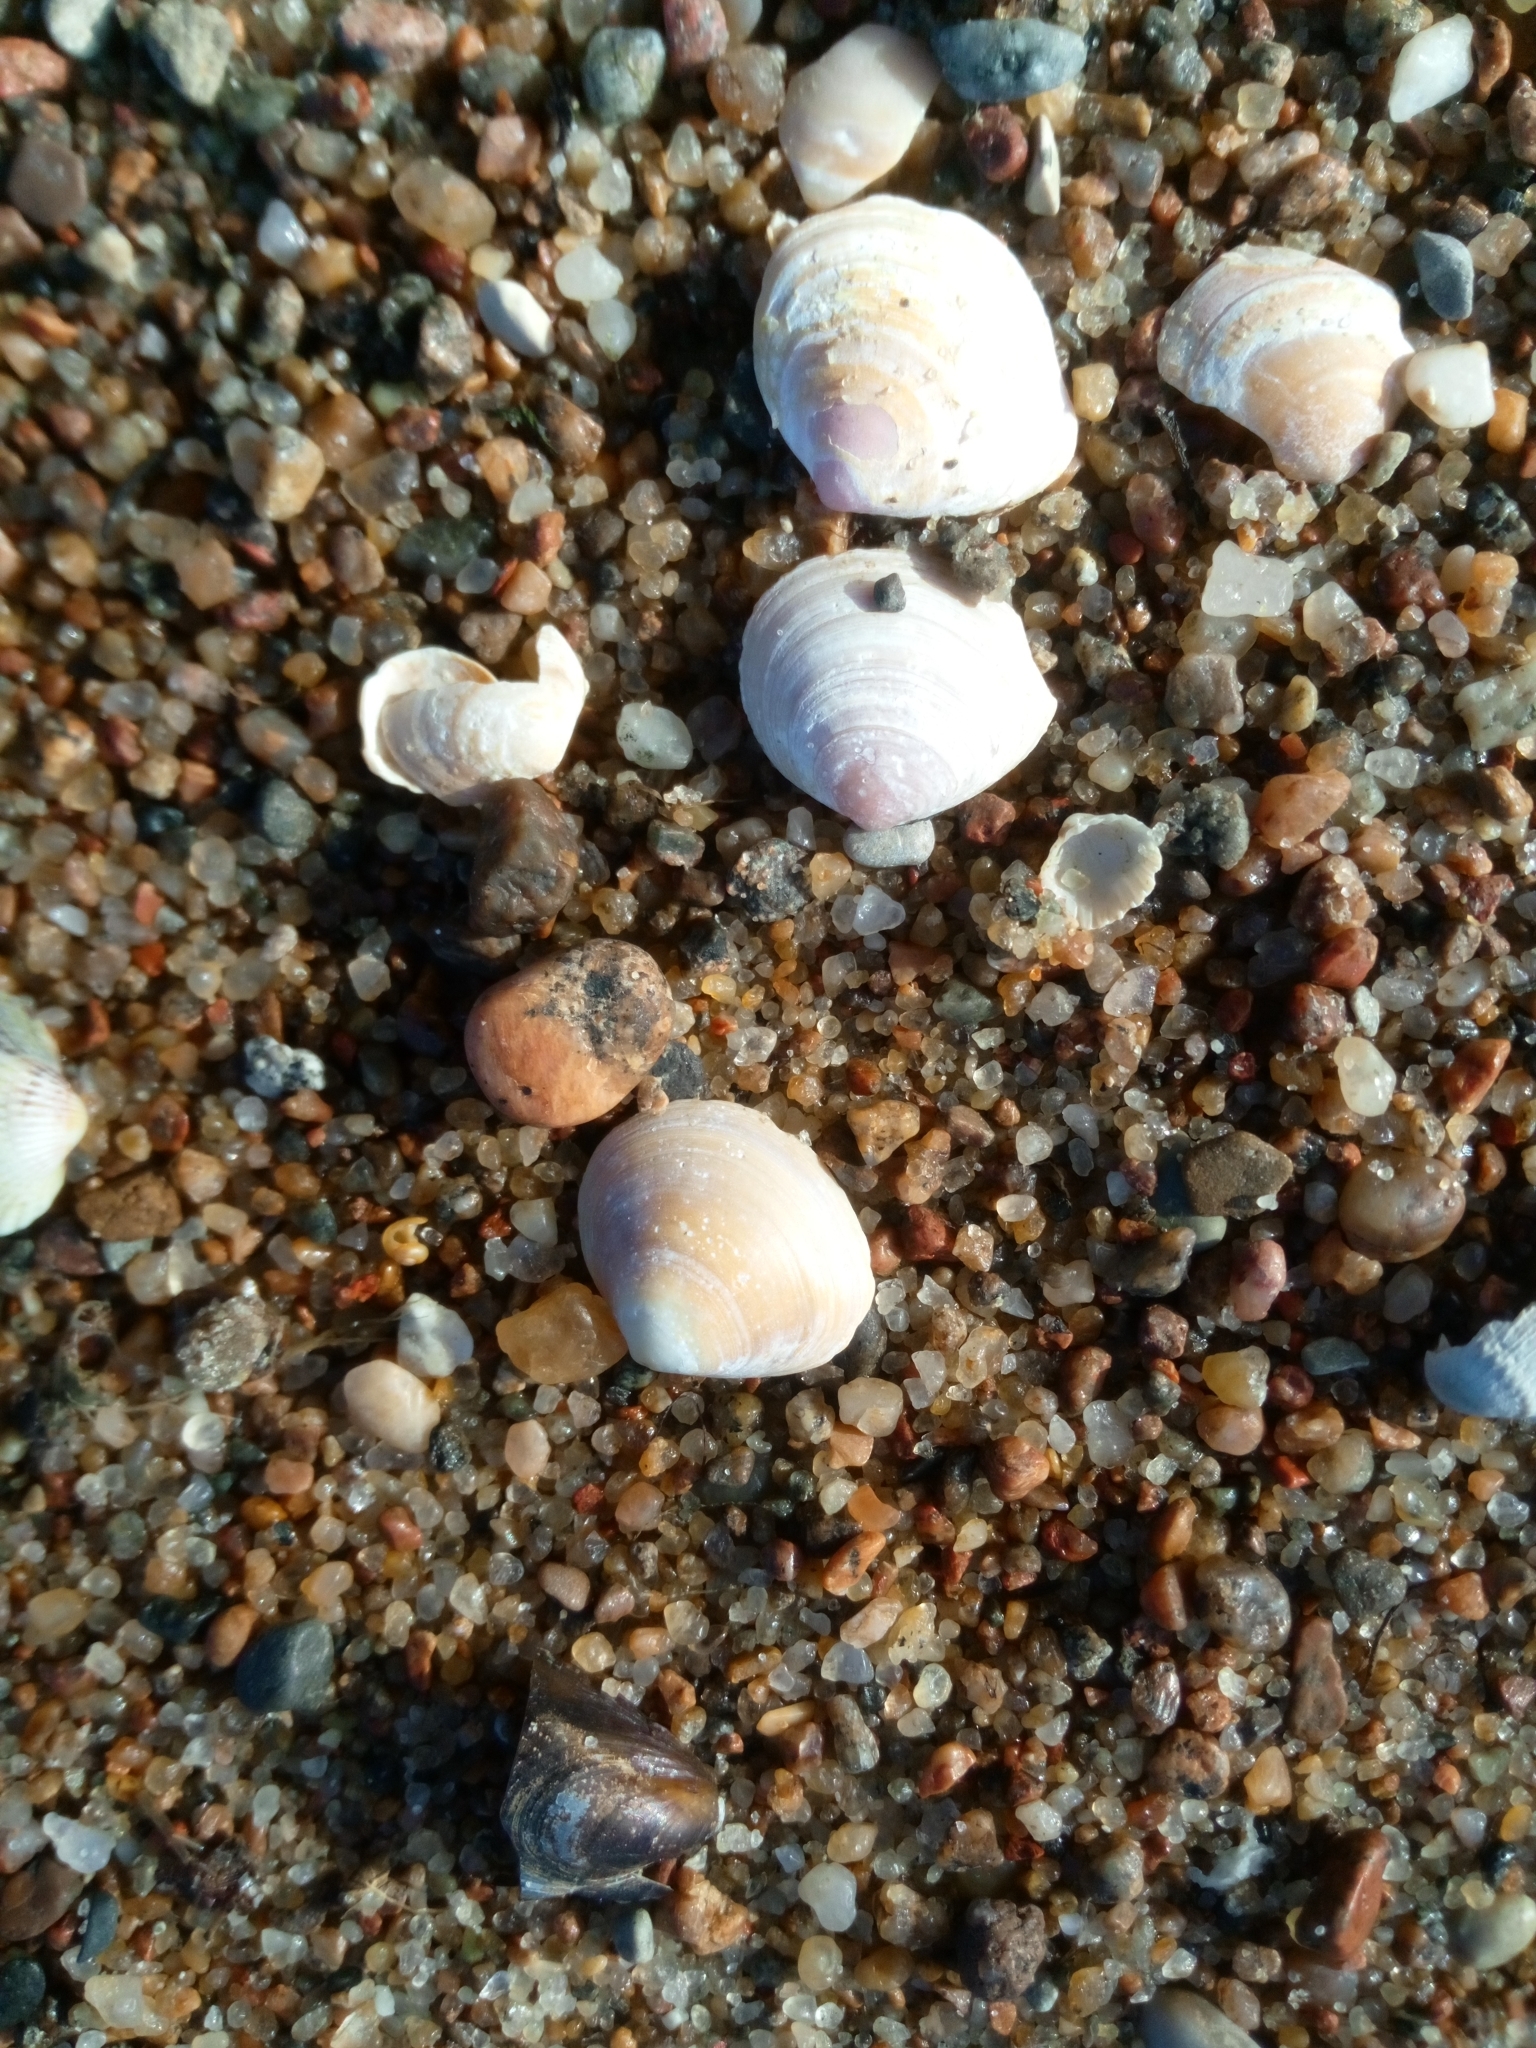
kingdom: Animalia
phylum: Mollusca
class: Bivalvia
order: Cardiida
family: Tellinidae
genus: Macoma
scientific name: Macoma balthica
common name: Baltic tellin
